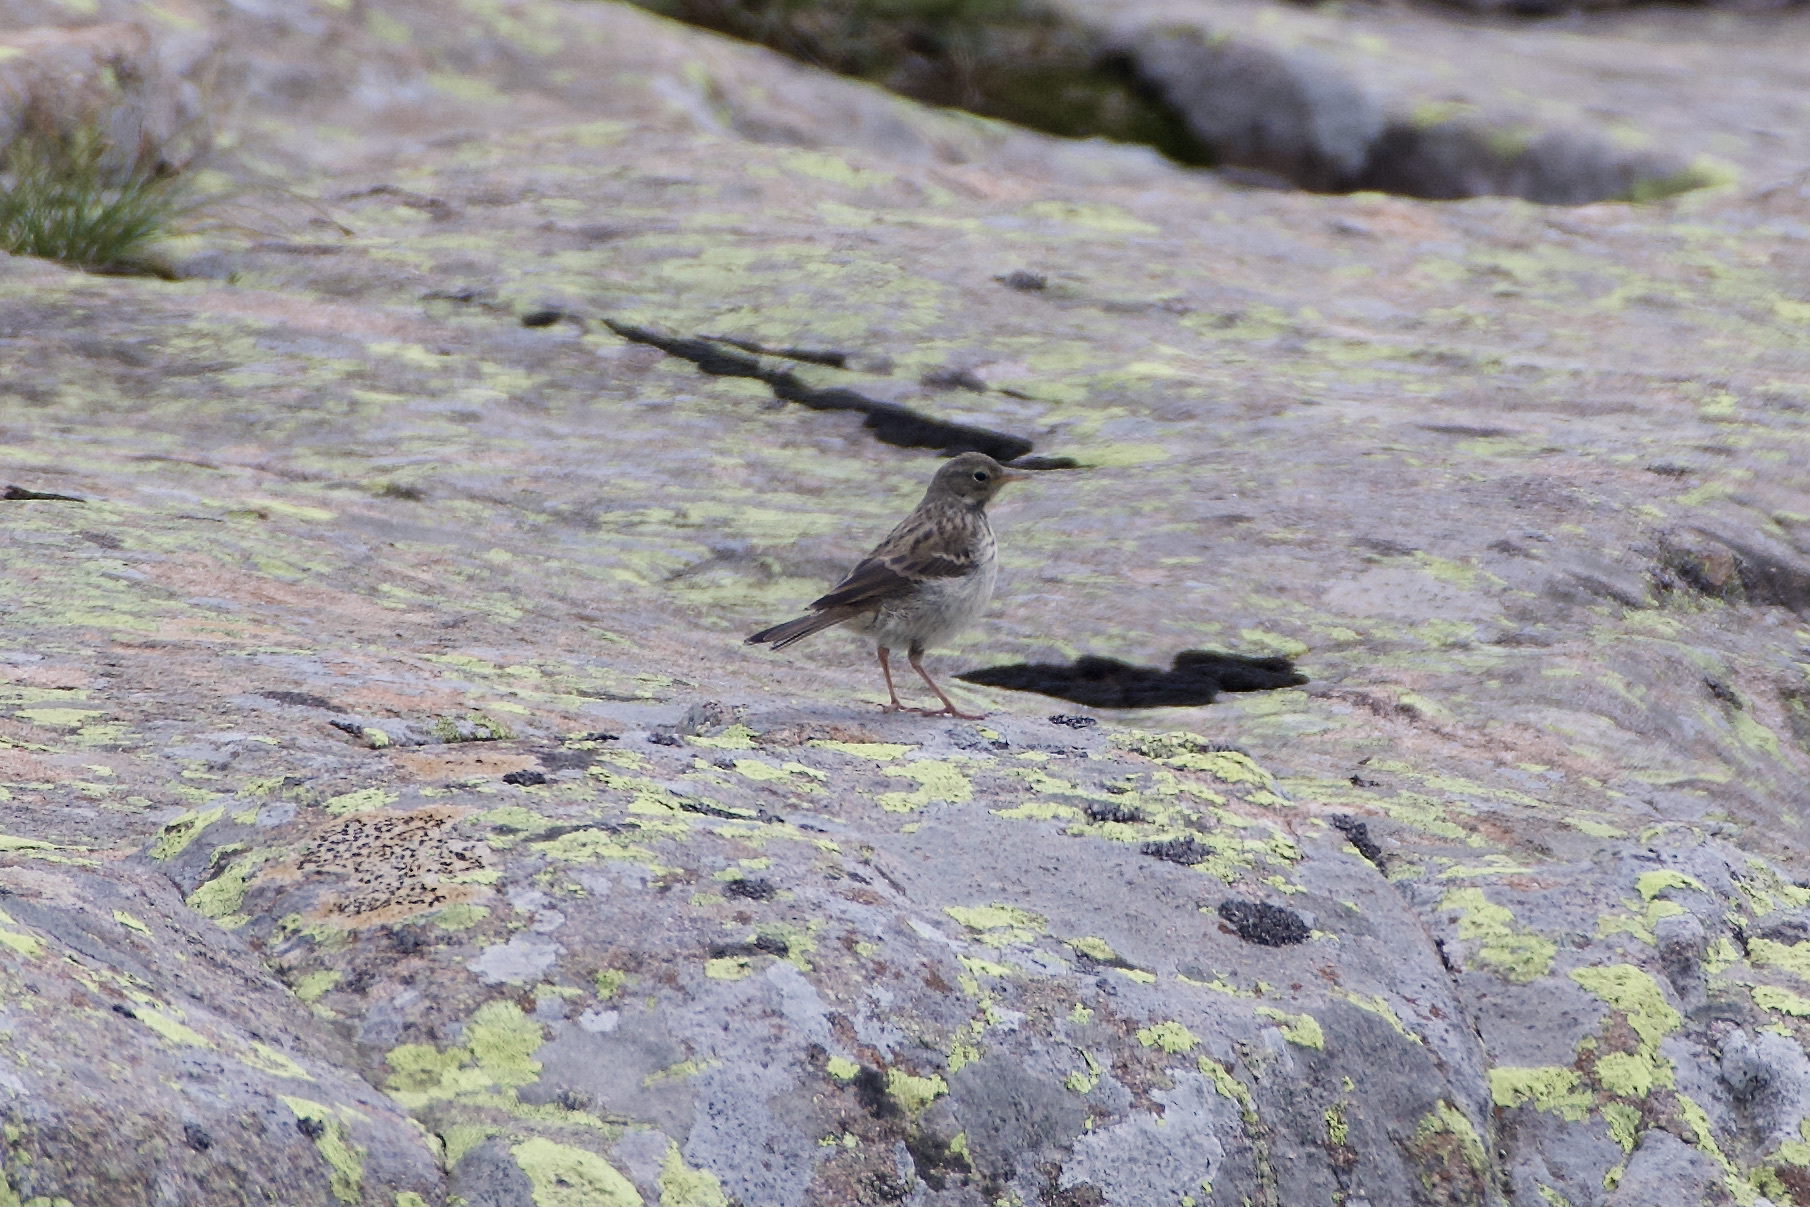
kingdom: Animalia
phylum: Chordata
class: Aves
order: Passeriformes
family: Motacillidae
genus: Anthus
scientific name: Anthus spinoletta
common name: Water pipit
